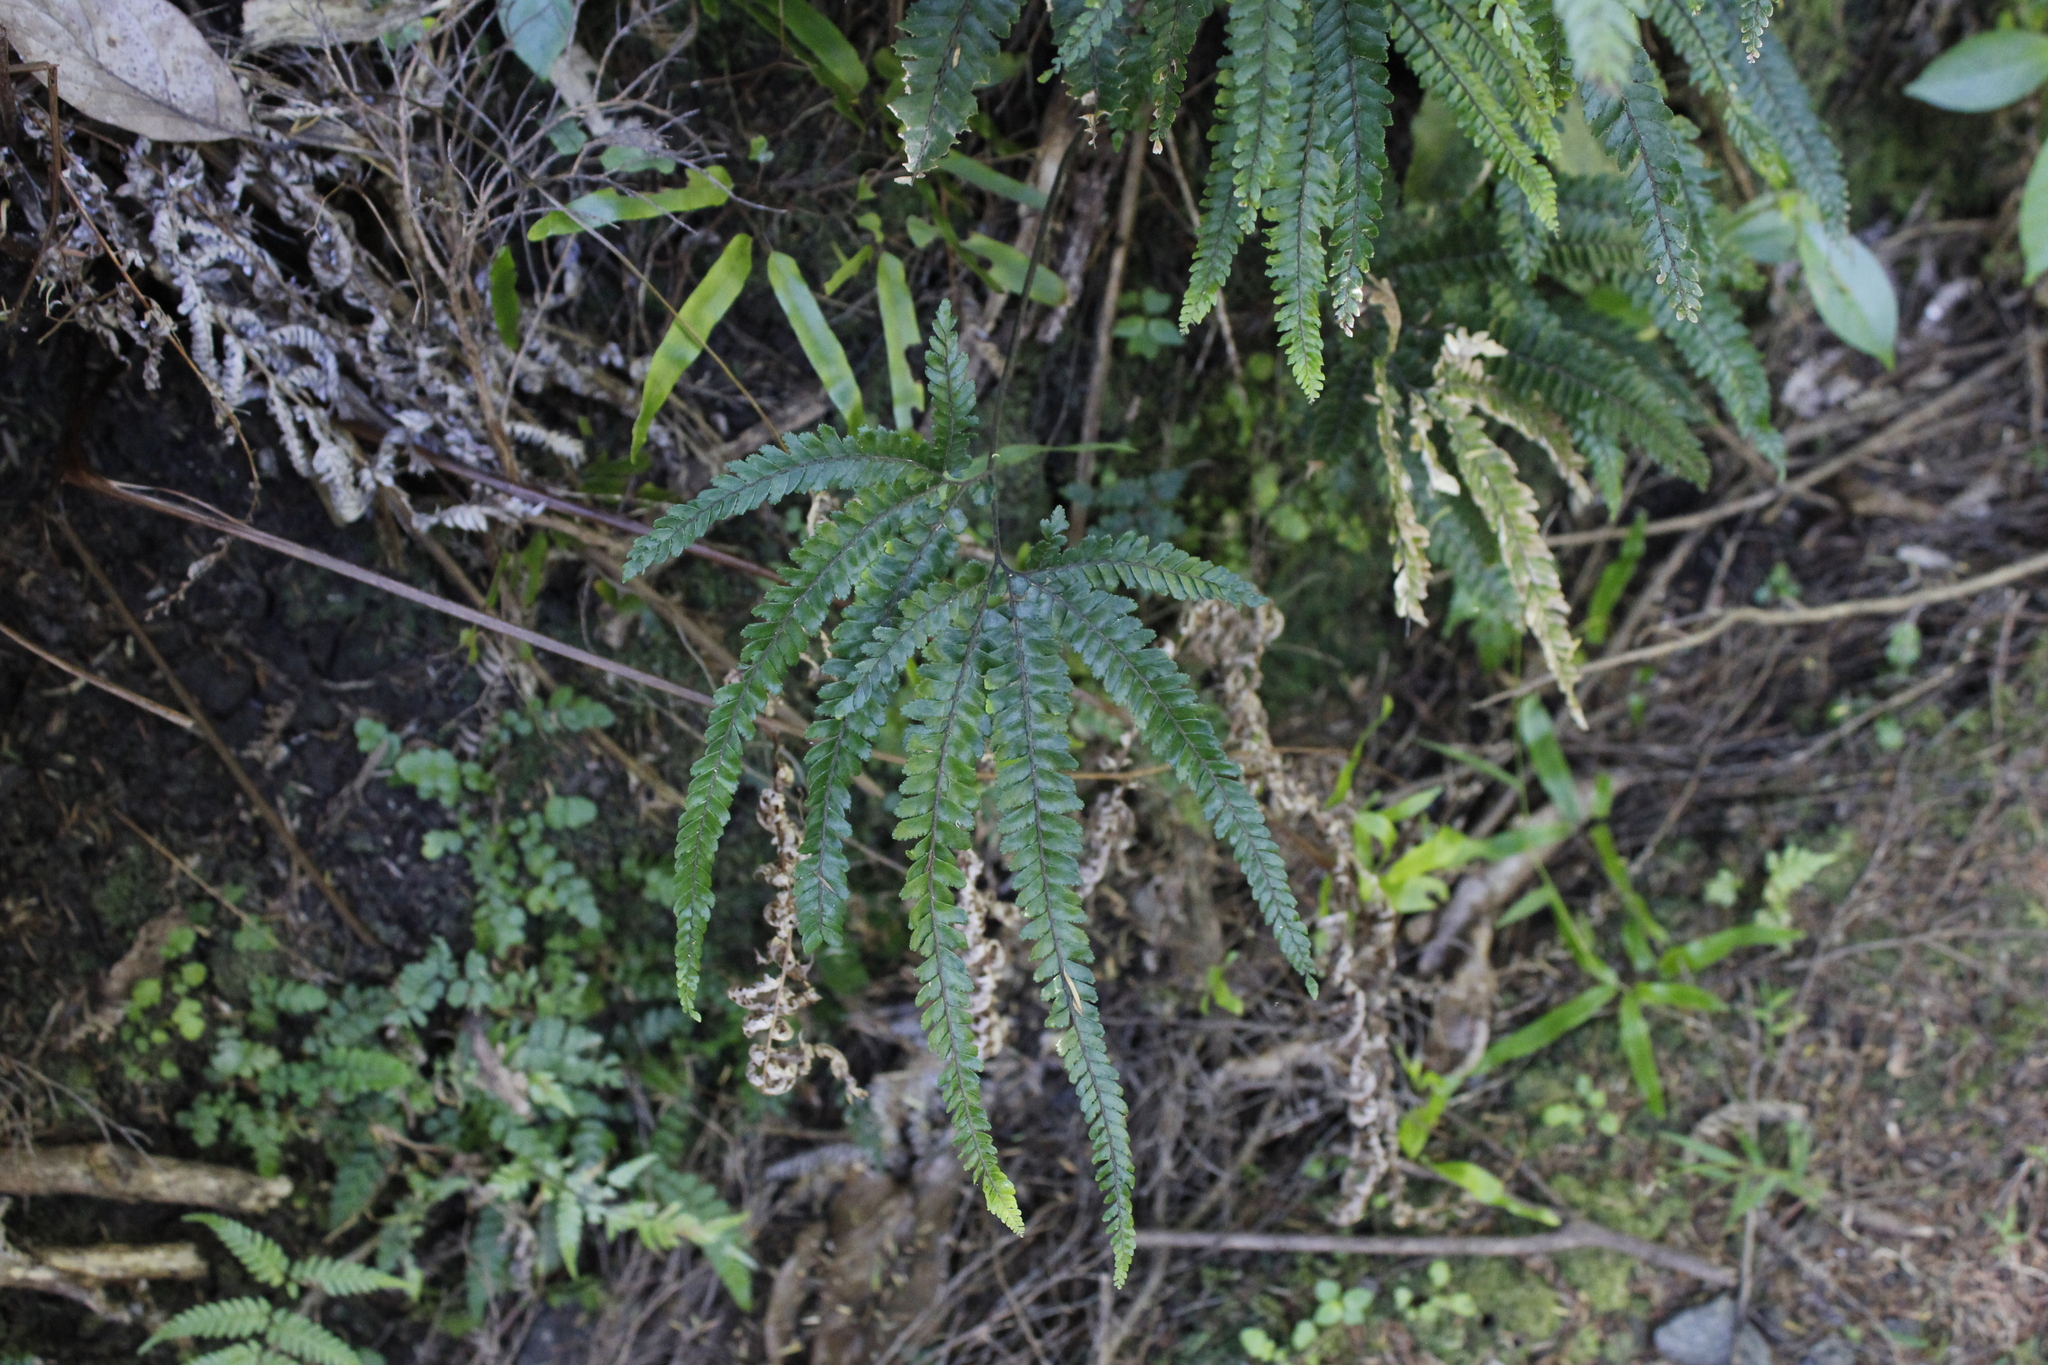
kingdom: Plantae
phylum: Tracheophyta
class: Polypodiopsida
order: Polypodiales
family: Pteridaceae
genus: Adiantum
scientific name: Adiantum hispidulum
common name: Rough maidenhair
